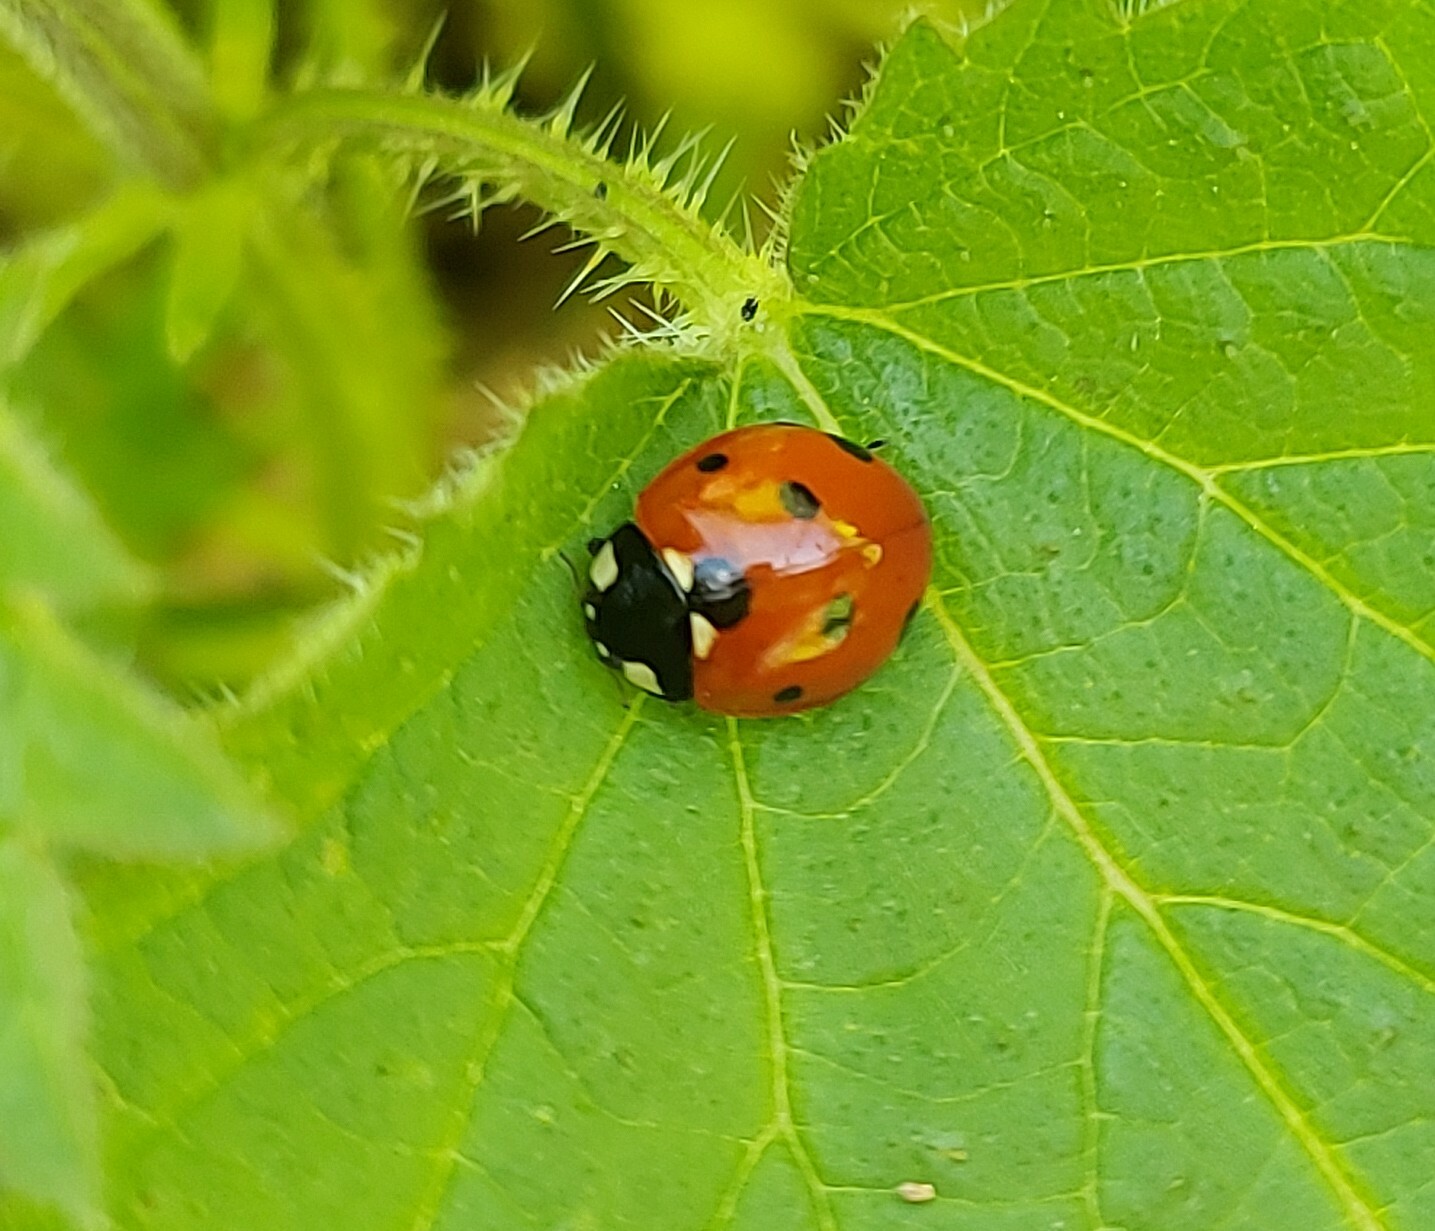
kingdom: Animalia
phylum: Arthropoda
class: Insecta
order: Coleoptera
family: Coccinellidae
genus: Coccinella
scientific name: Coccinella septempunctata
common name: Sevenspotted lady beetle
